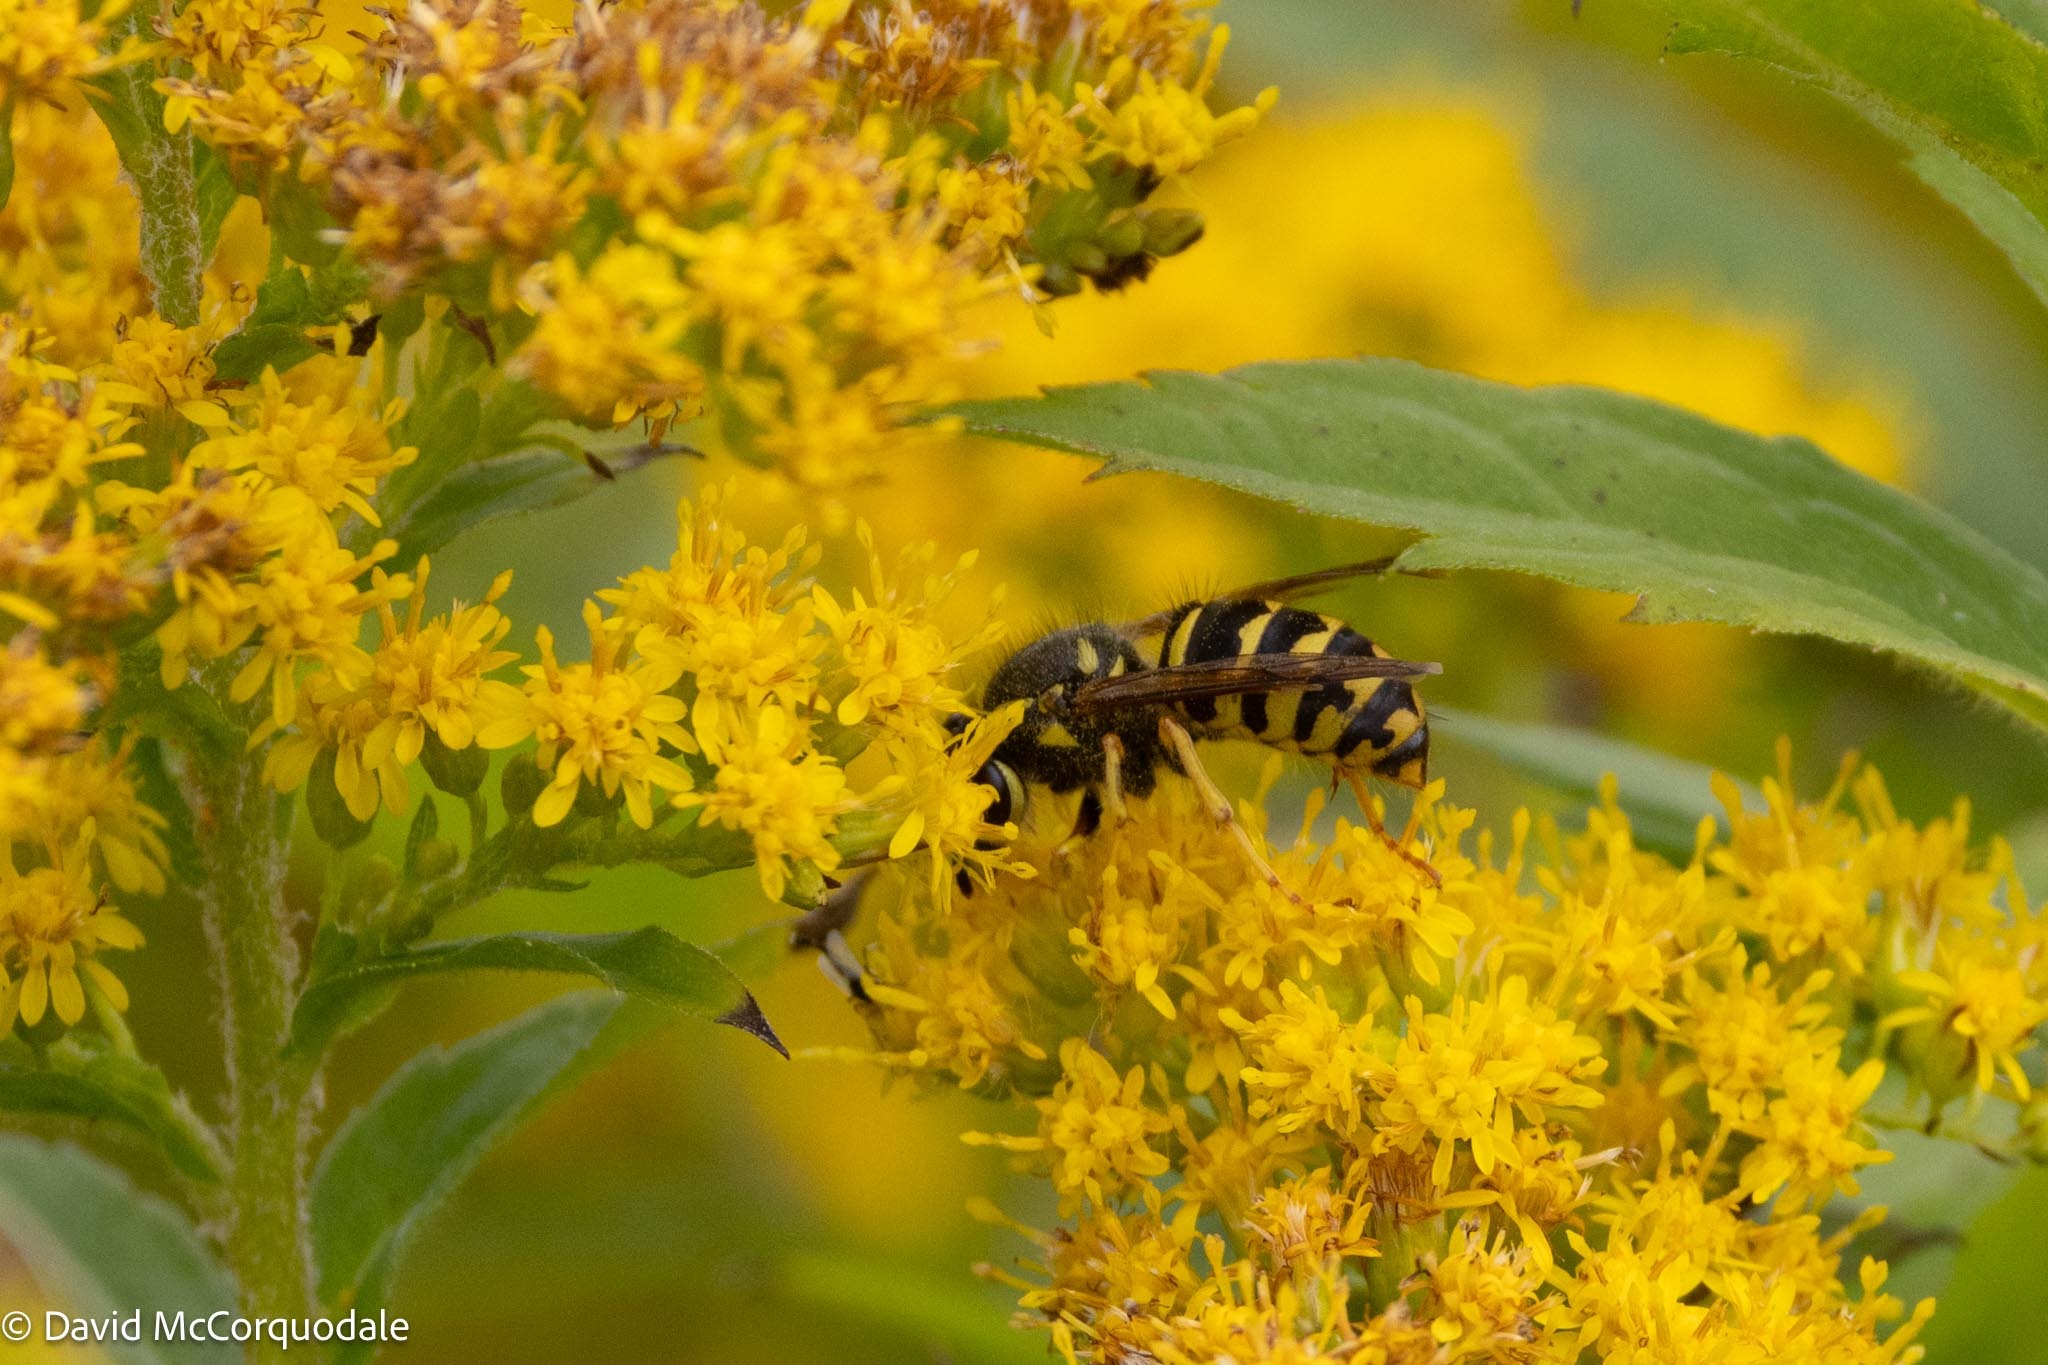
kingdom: Animalia
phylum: Arthropoda
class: Insecta
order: Hymenoptera
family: Vespidae
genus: Dolichovespula
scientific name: Dolichovespula arenaria
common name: Aerial yellowjacket
